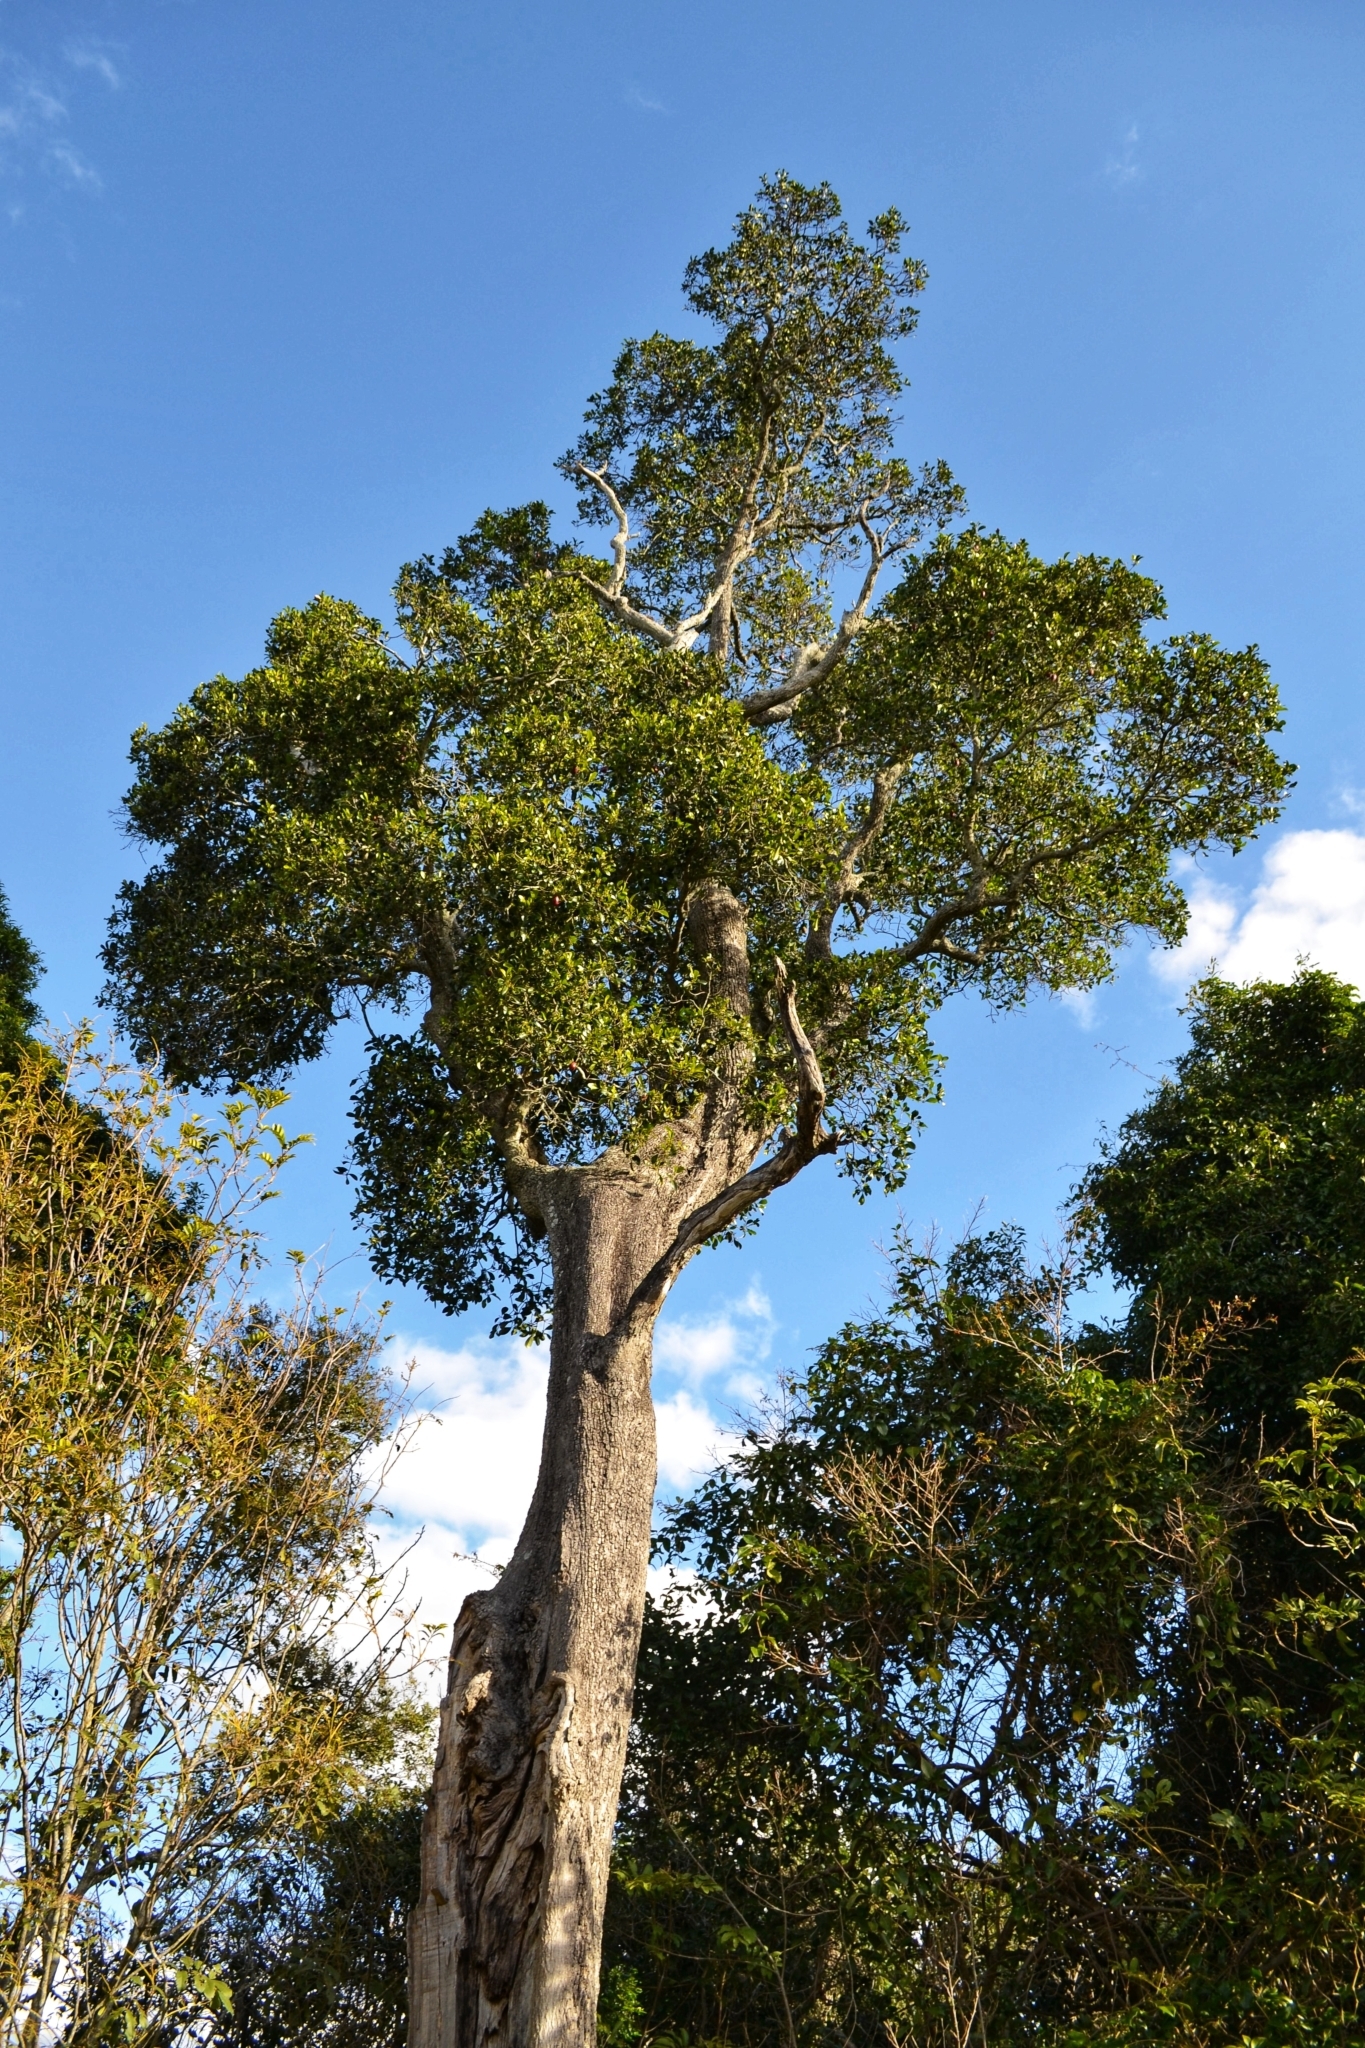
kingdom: Plantae
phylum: Tracheophyta
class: Magnoliopsida
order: Ericales
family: Sapotaceae
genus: Planchonella
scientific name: Planchonella eerwah
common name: Shiny-leaf coondoo
